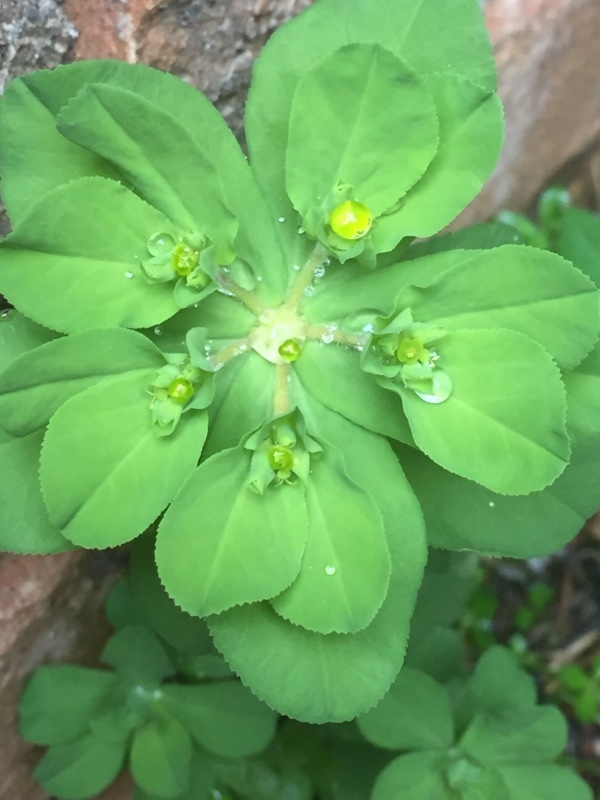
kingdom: Plantae
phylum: Tracheophyta
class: Magnoliopsida
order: Malpighiales
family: Euphorbiaceae
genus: Euphorbia
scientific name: Euphorbia helioscopia
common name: Sun spurge
